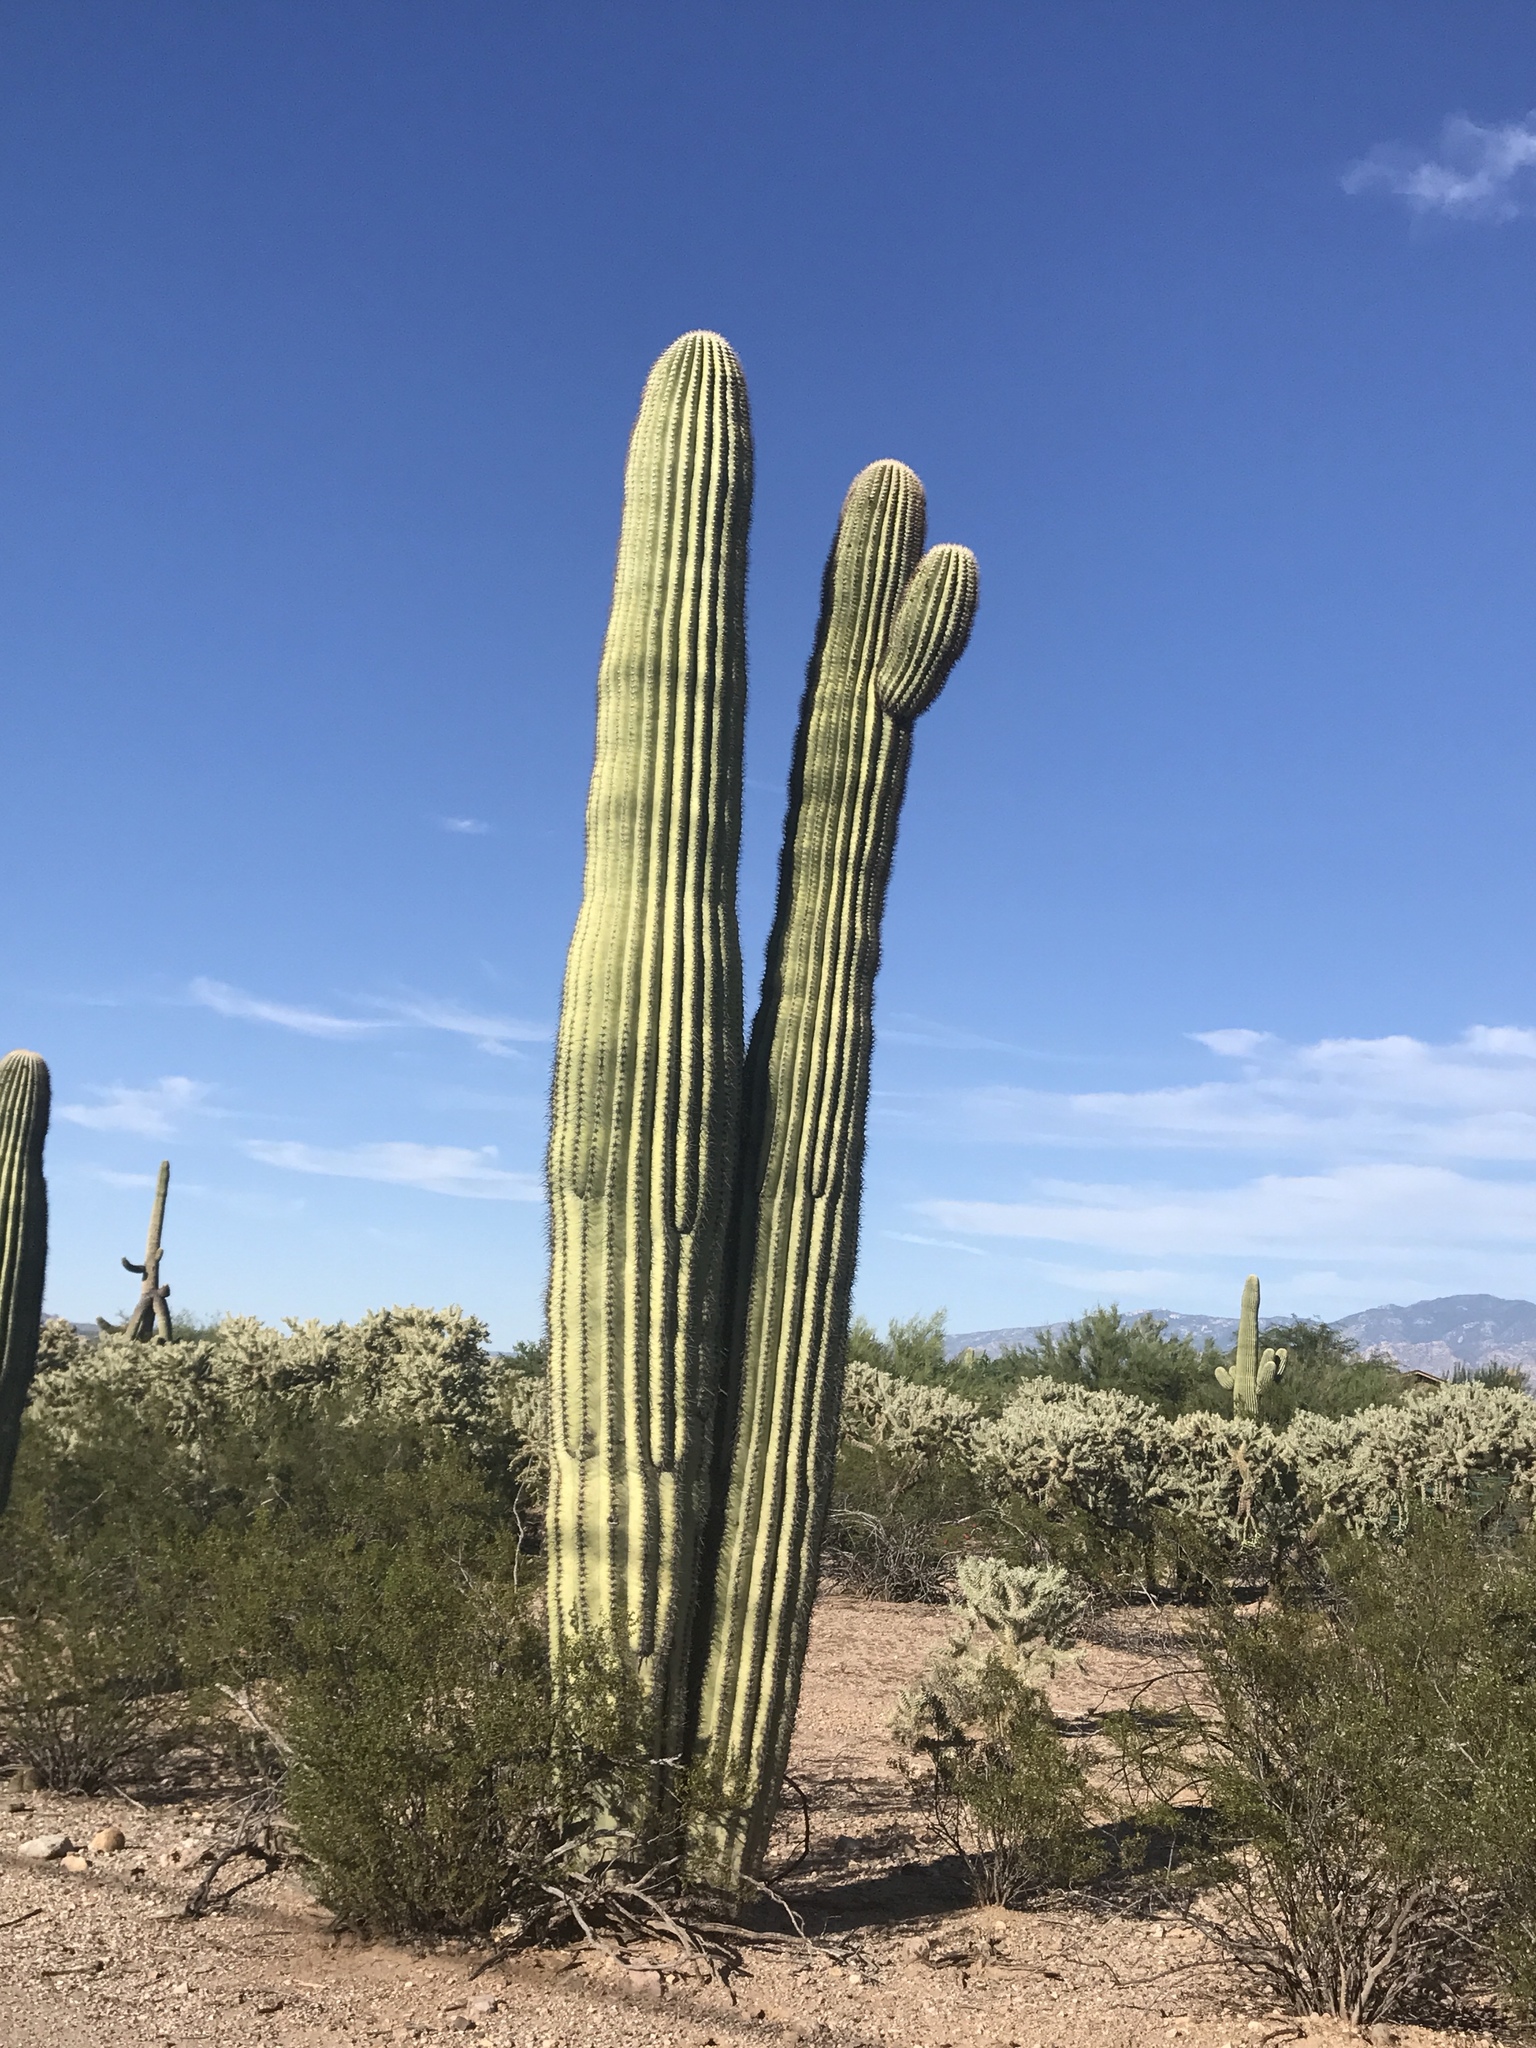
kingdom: Plantae
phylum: Tracheophyta
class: Magnoliopsida
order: Caryophyllales
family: Cactaceae
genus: Carnegiea
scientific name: Carnegiea gigantea
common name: Saguaro
